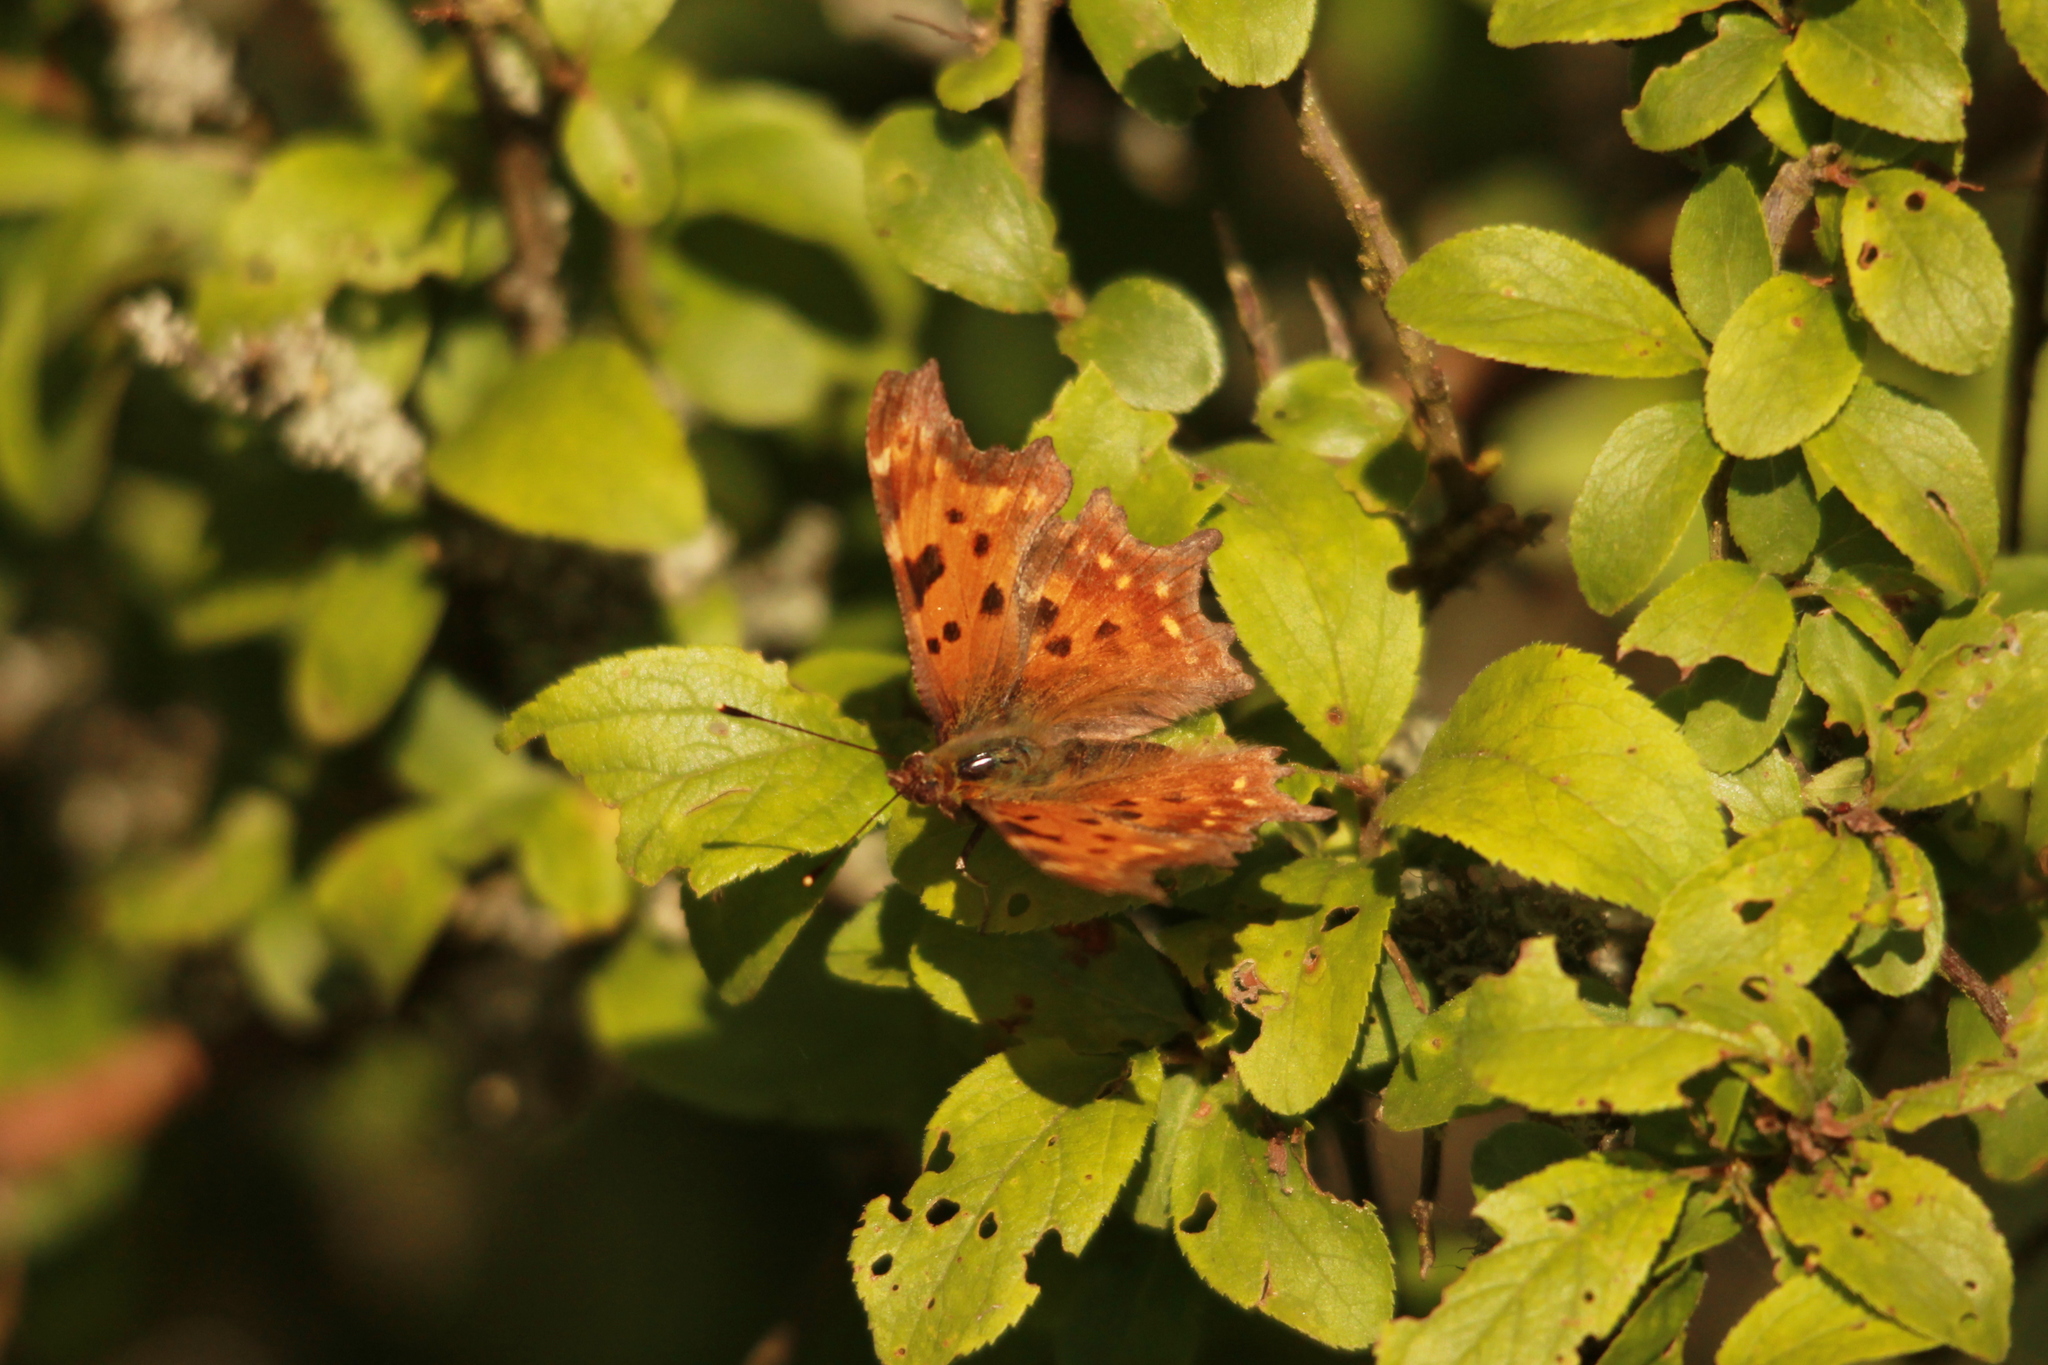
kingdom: Animalia
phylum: Arthropoda
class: Insecta
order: Lepidoptera
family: Nymphalidae
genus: Polygonia
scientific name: Polygonia c-album
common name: Comma
